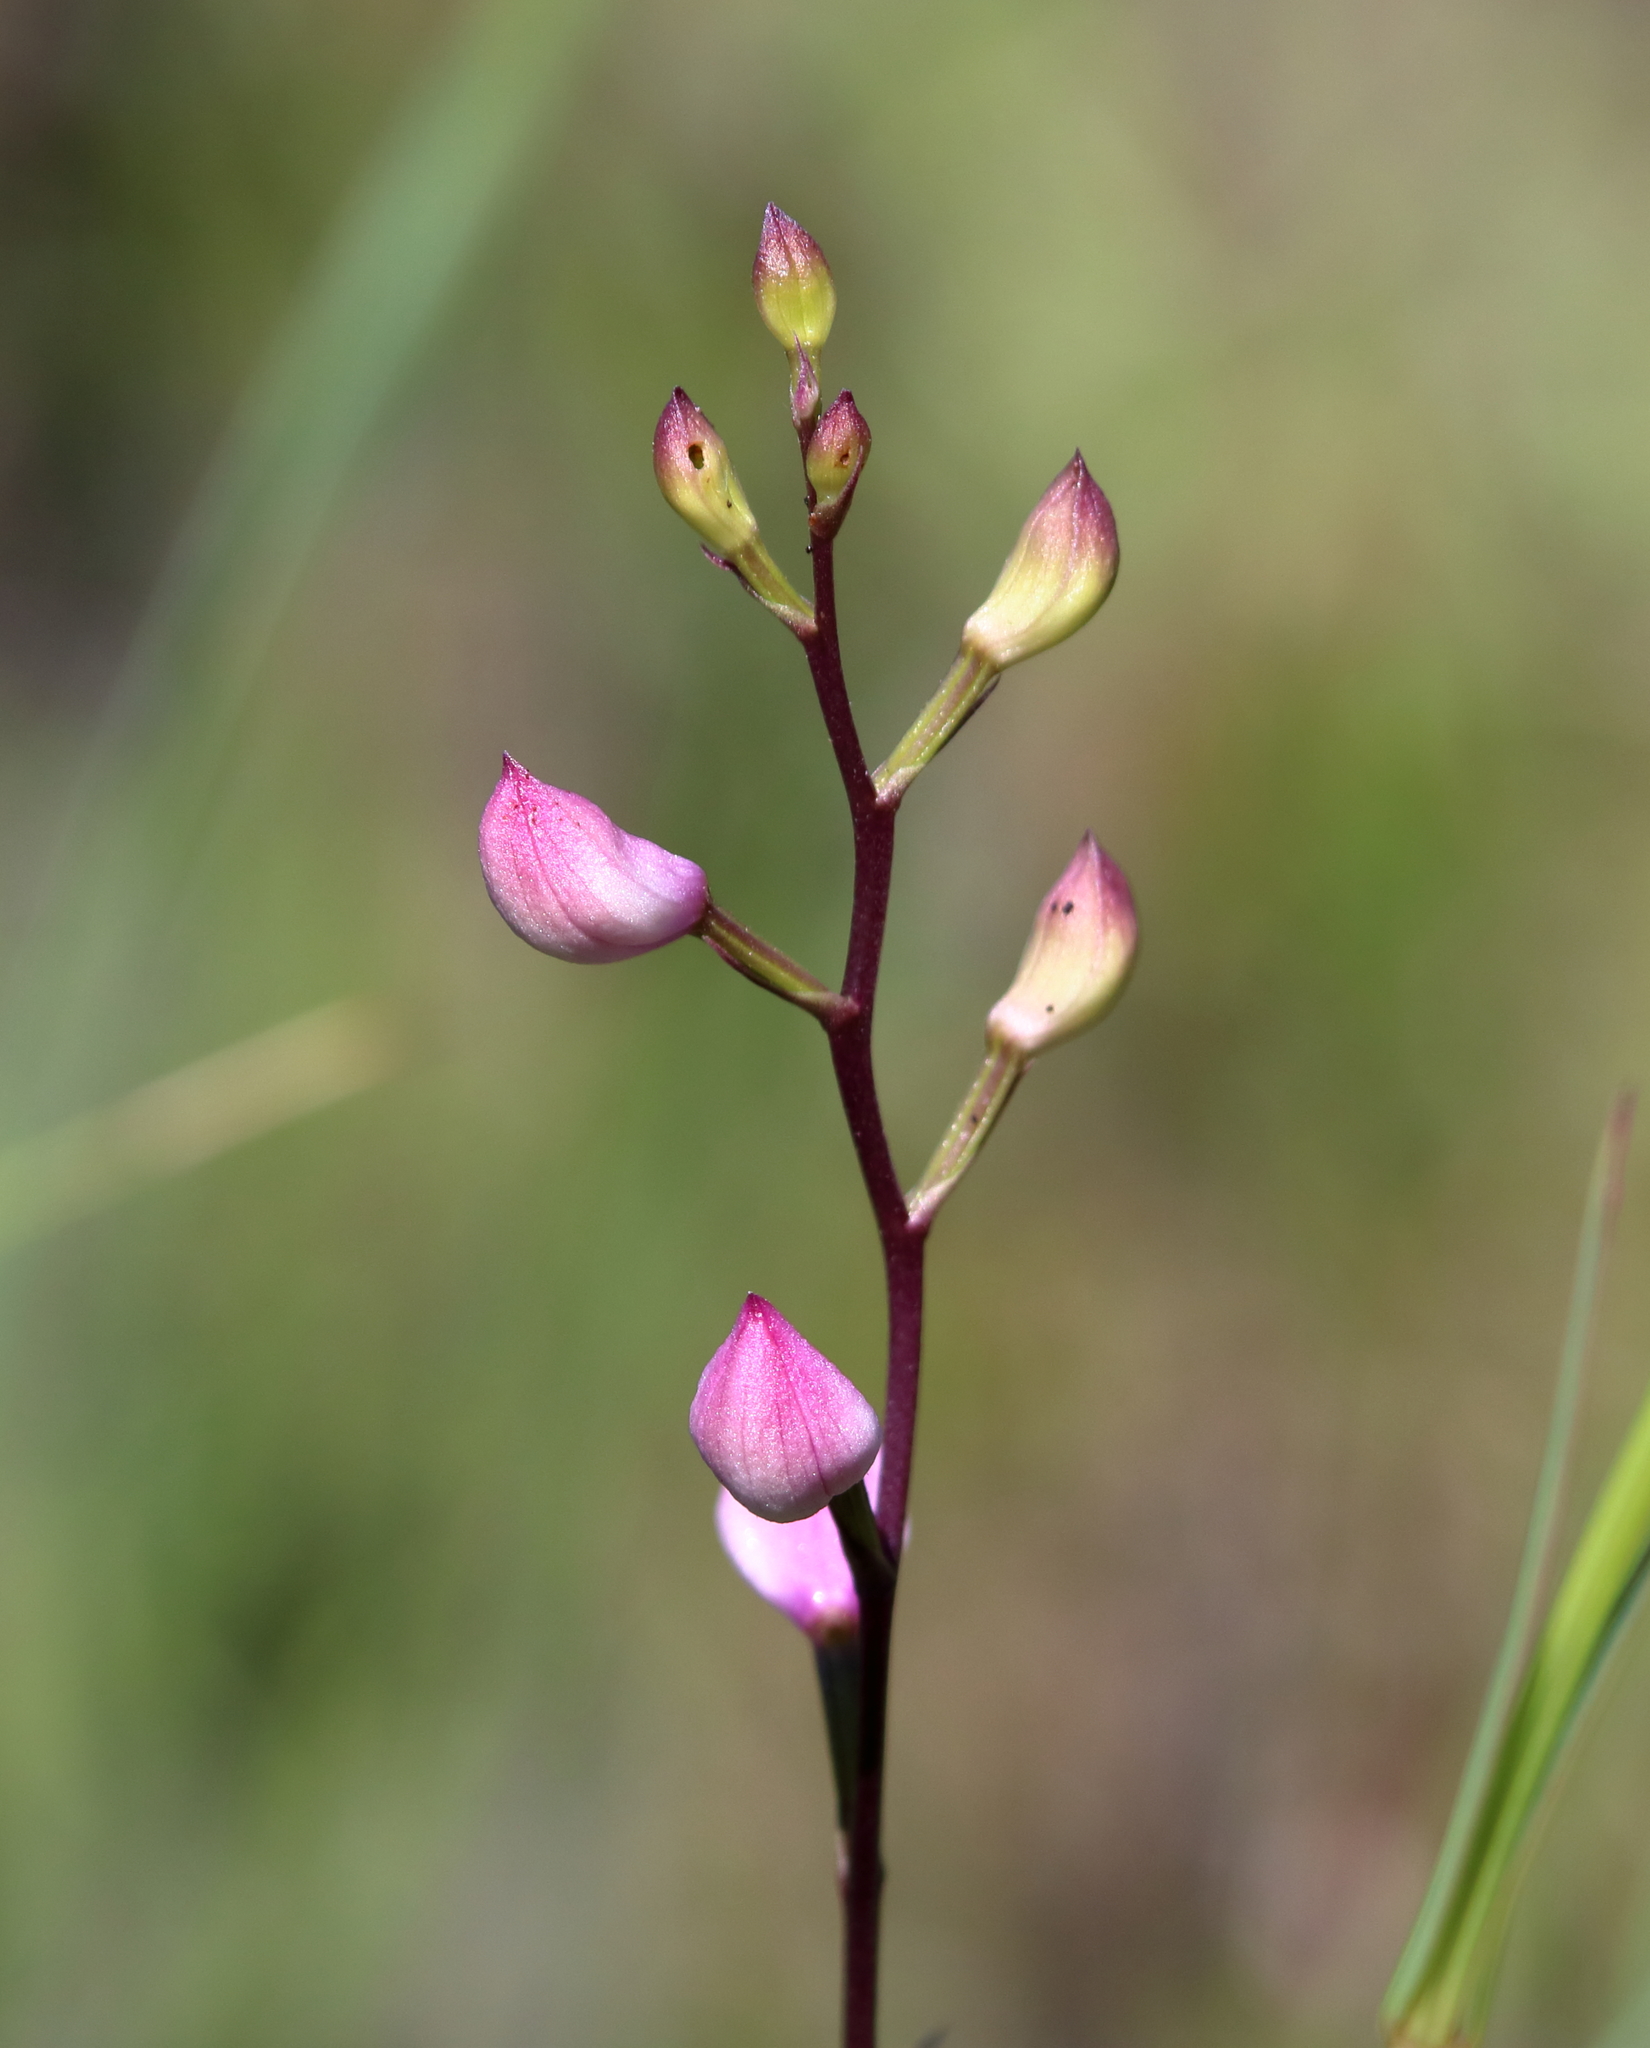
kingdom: Plantae
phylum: Tracheophyta
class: Liliopsida
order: Asparagales
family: Orchidaceae
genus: Calopogon
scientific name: Calopogon multiflorus
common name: Many-flowered grass-pink orchid
